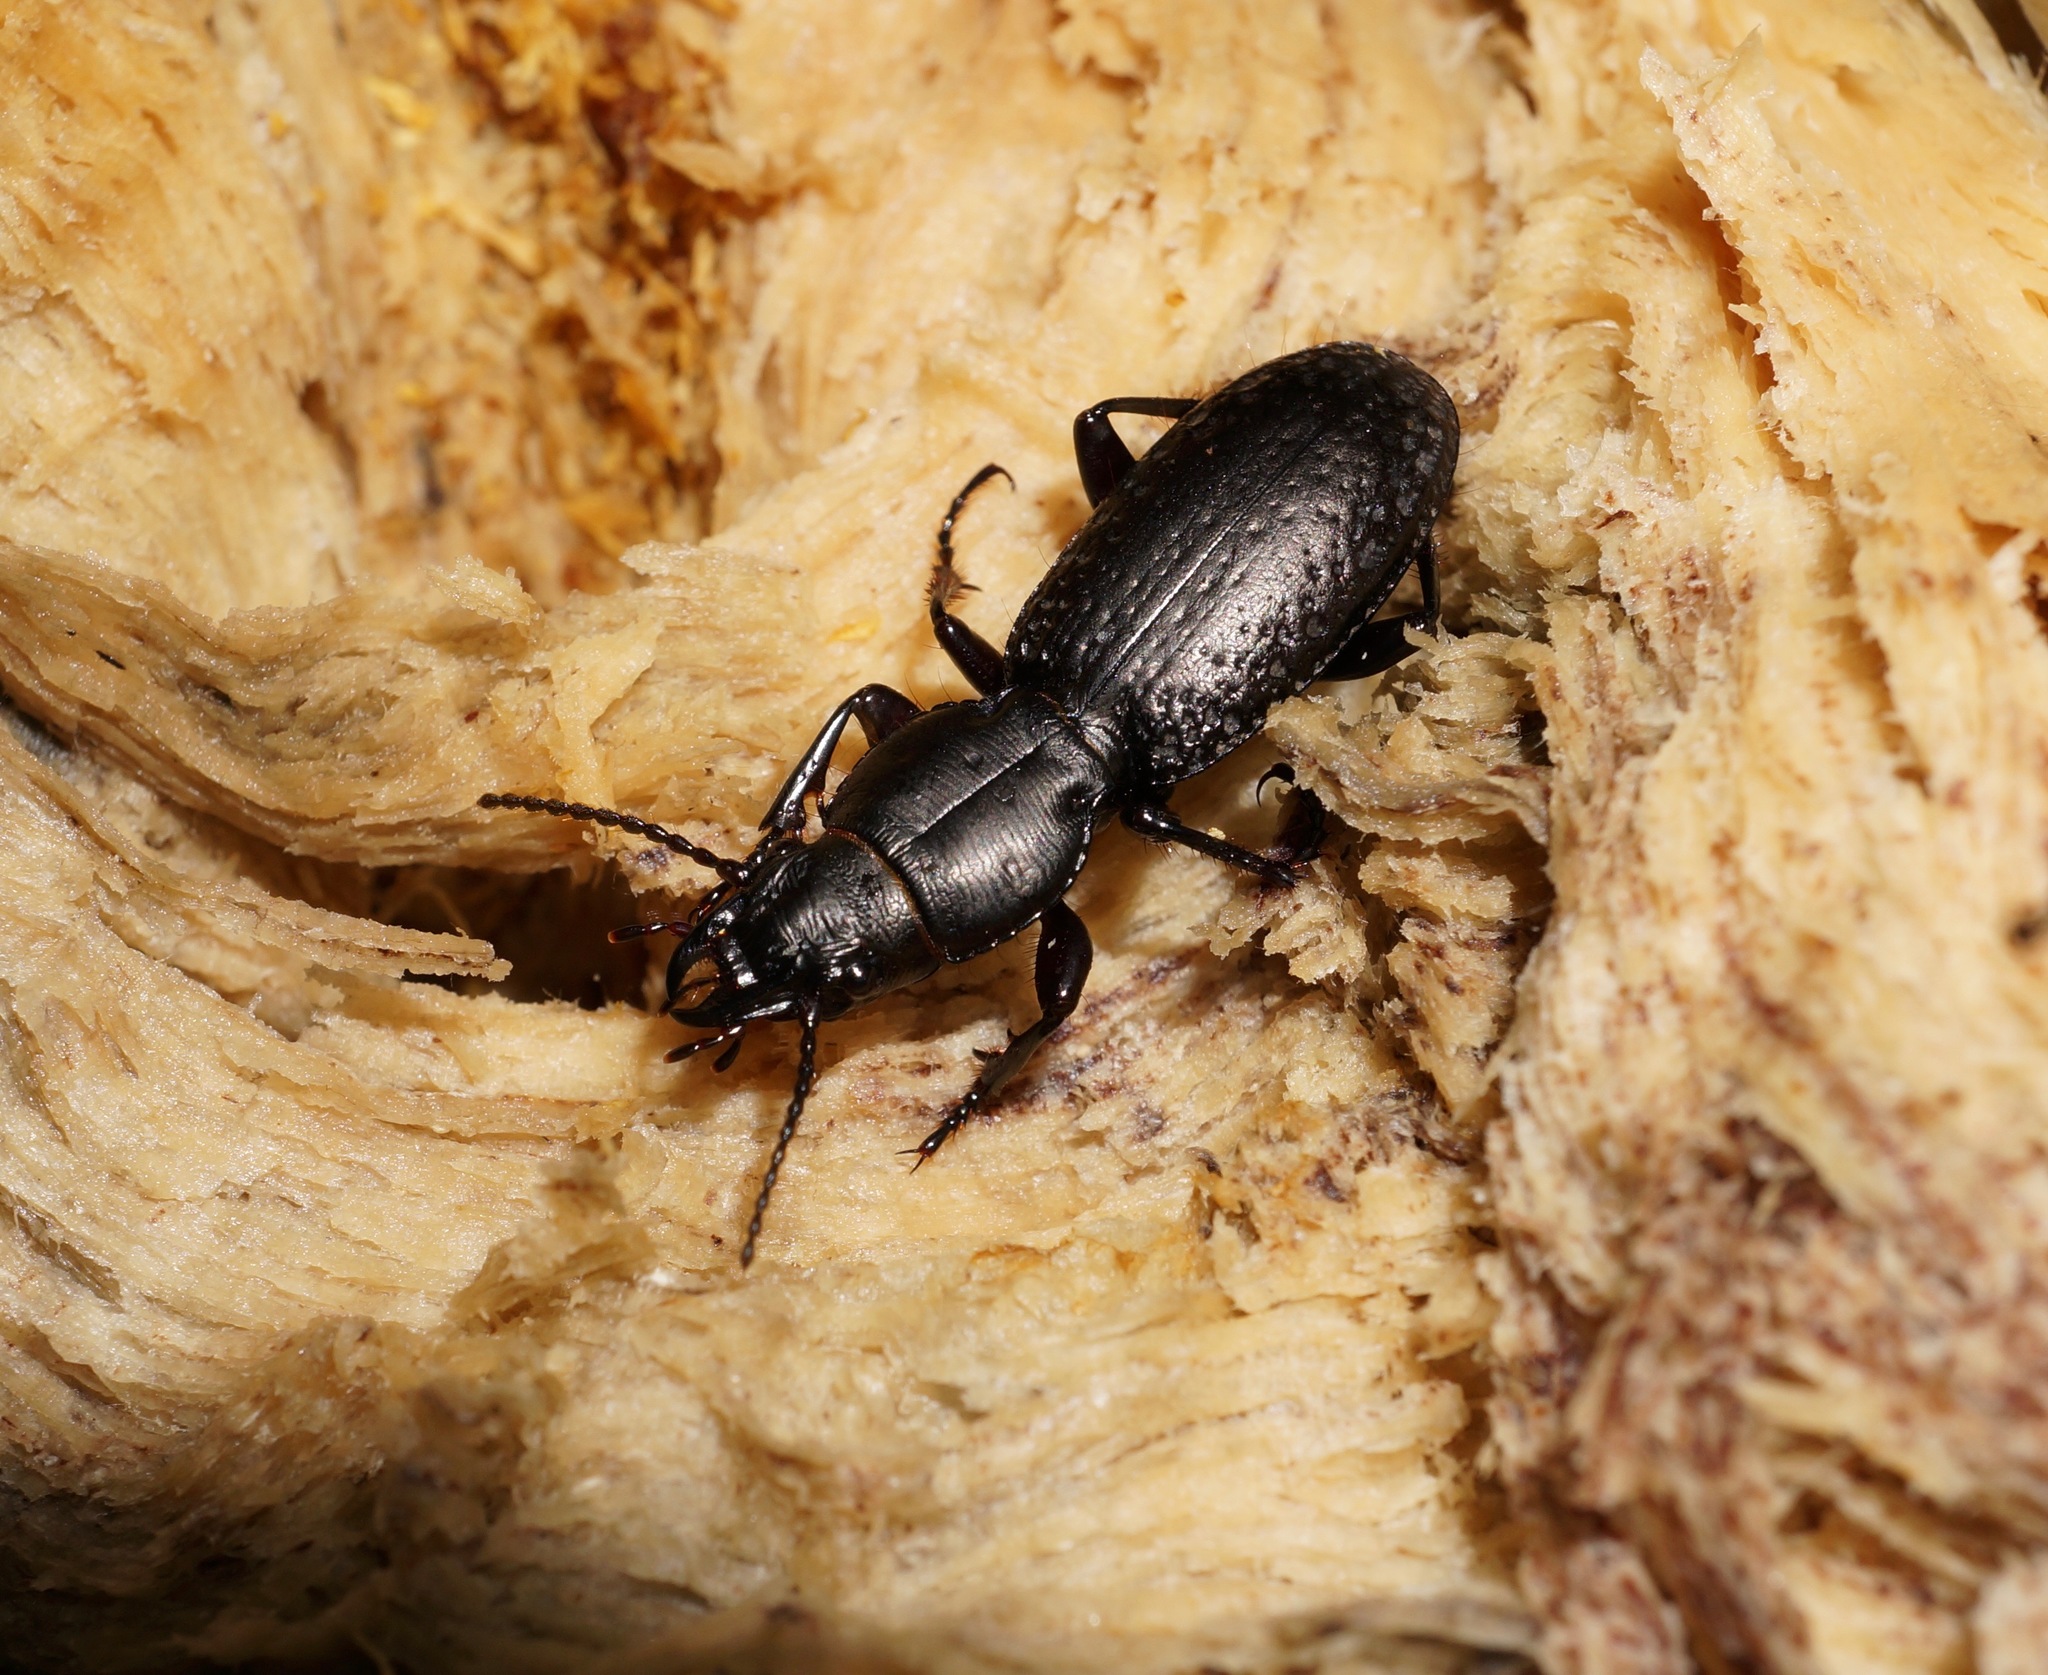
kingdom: Animalia
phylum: Arthropoda
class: Insecta
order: Coleoptera
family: Carabidae
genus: Mecodema
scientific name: Mecodema crenicolle
